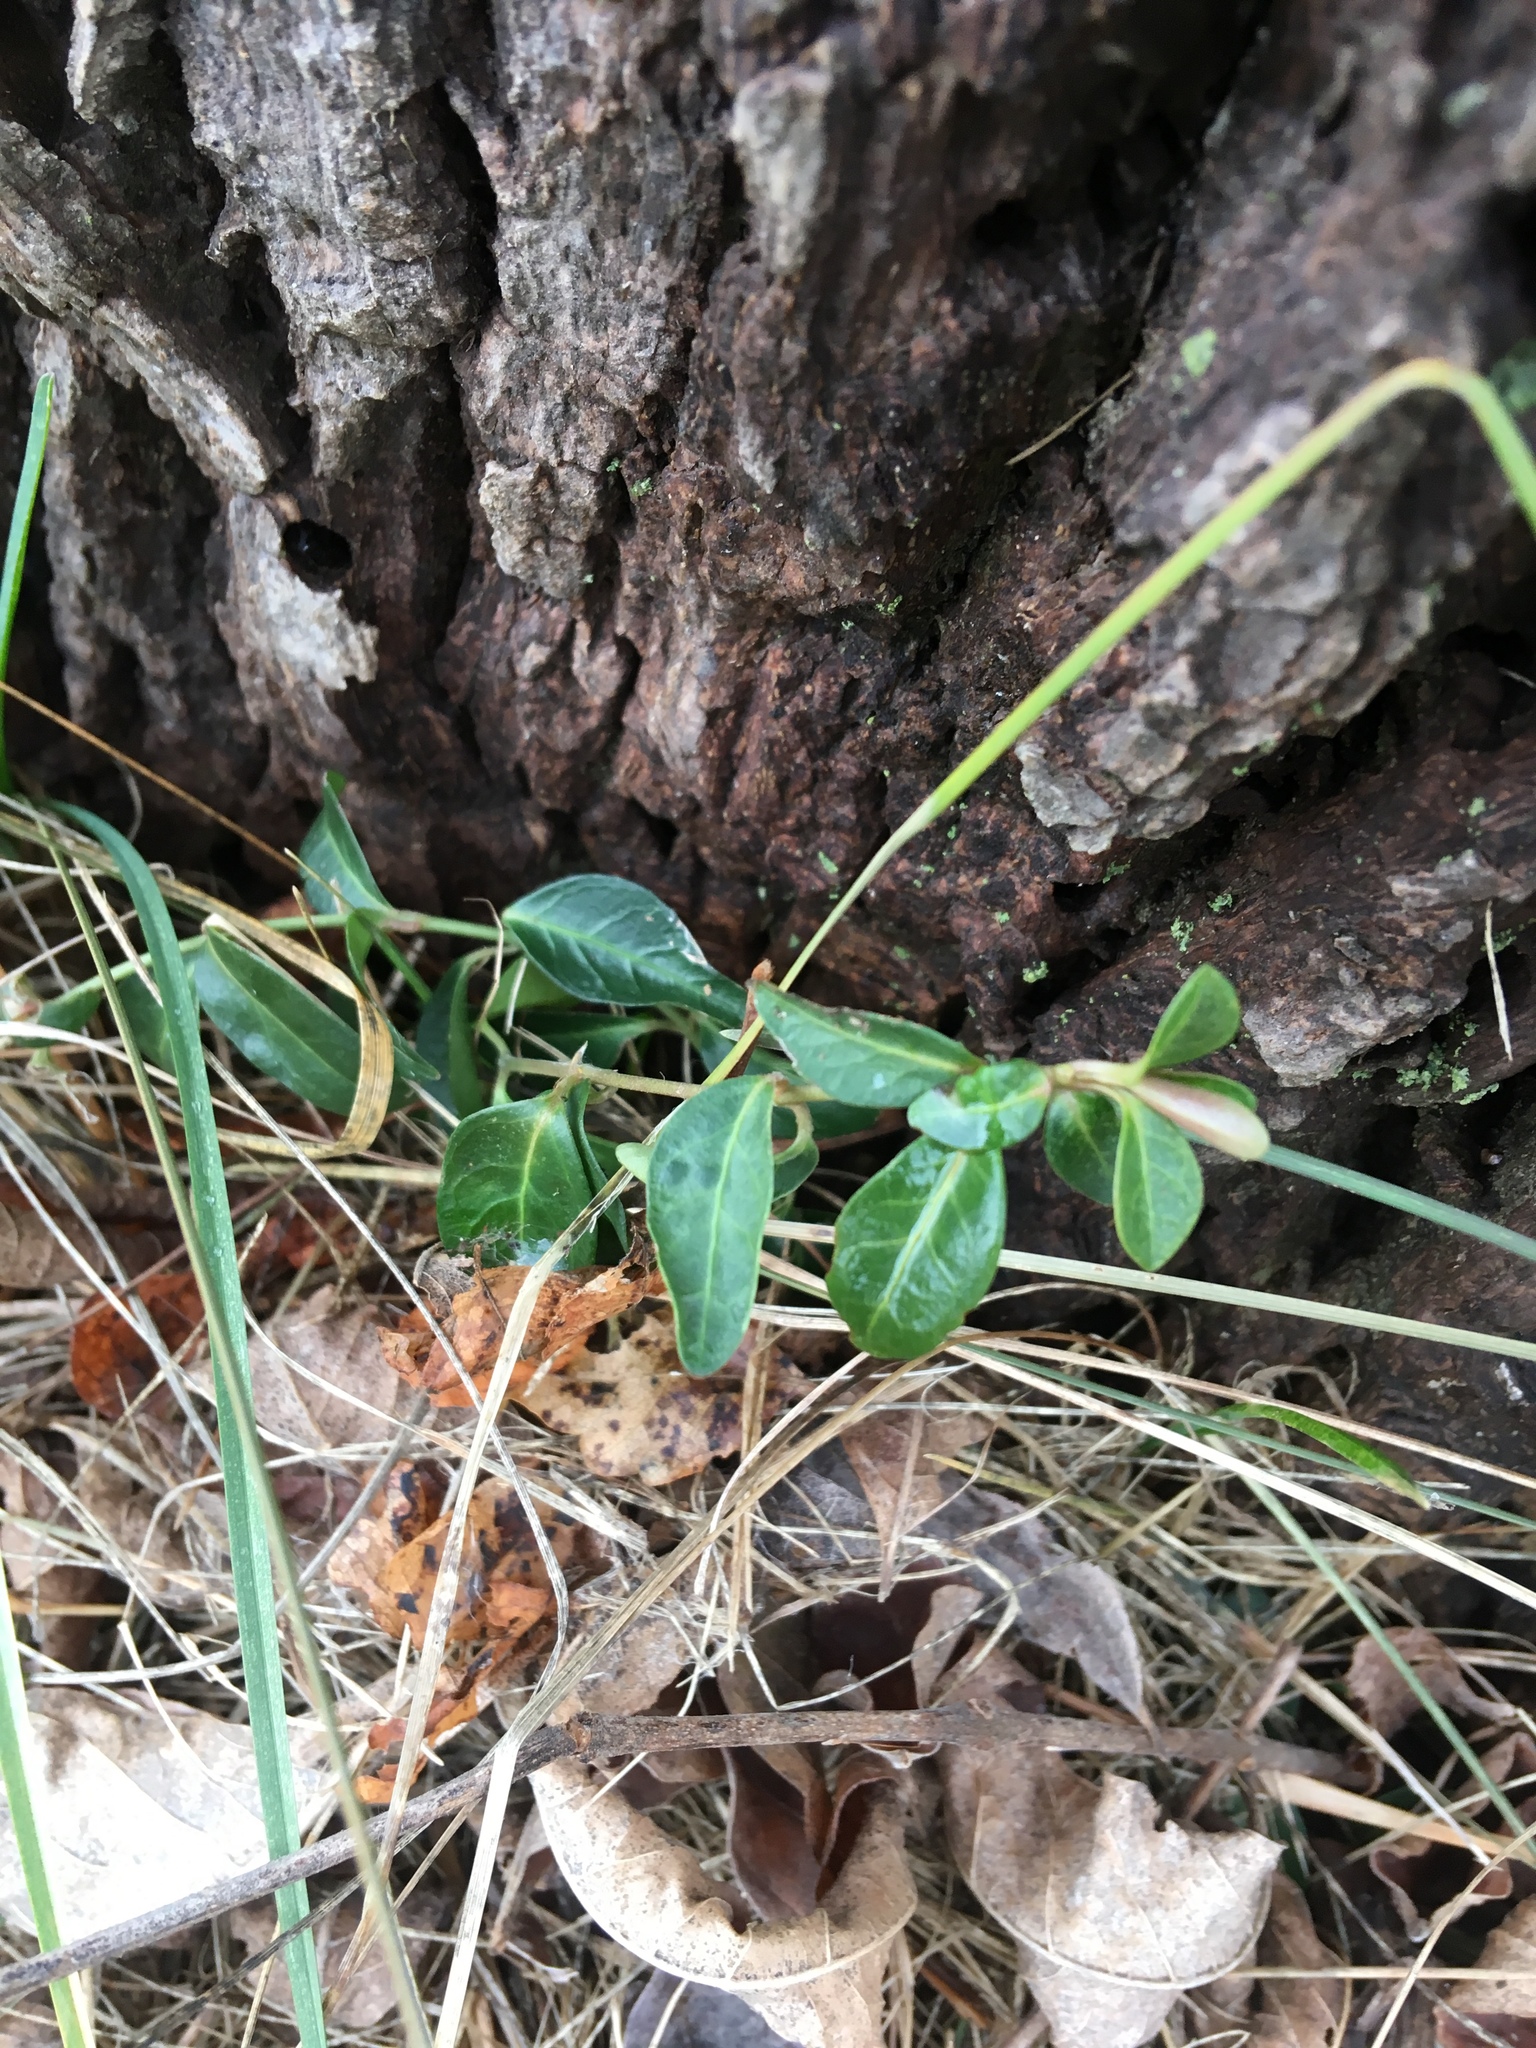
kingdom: Plantae
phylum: Tracheophyta
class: Magnoliopsida
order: Celastrales
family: Celastraceae
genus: Euonymus
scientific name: Euonymus fortunei
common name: Climbing euonymus
